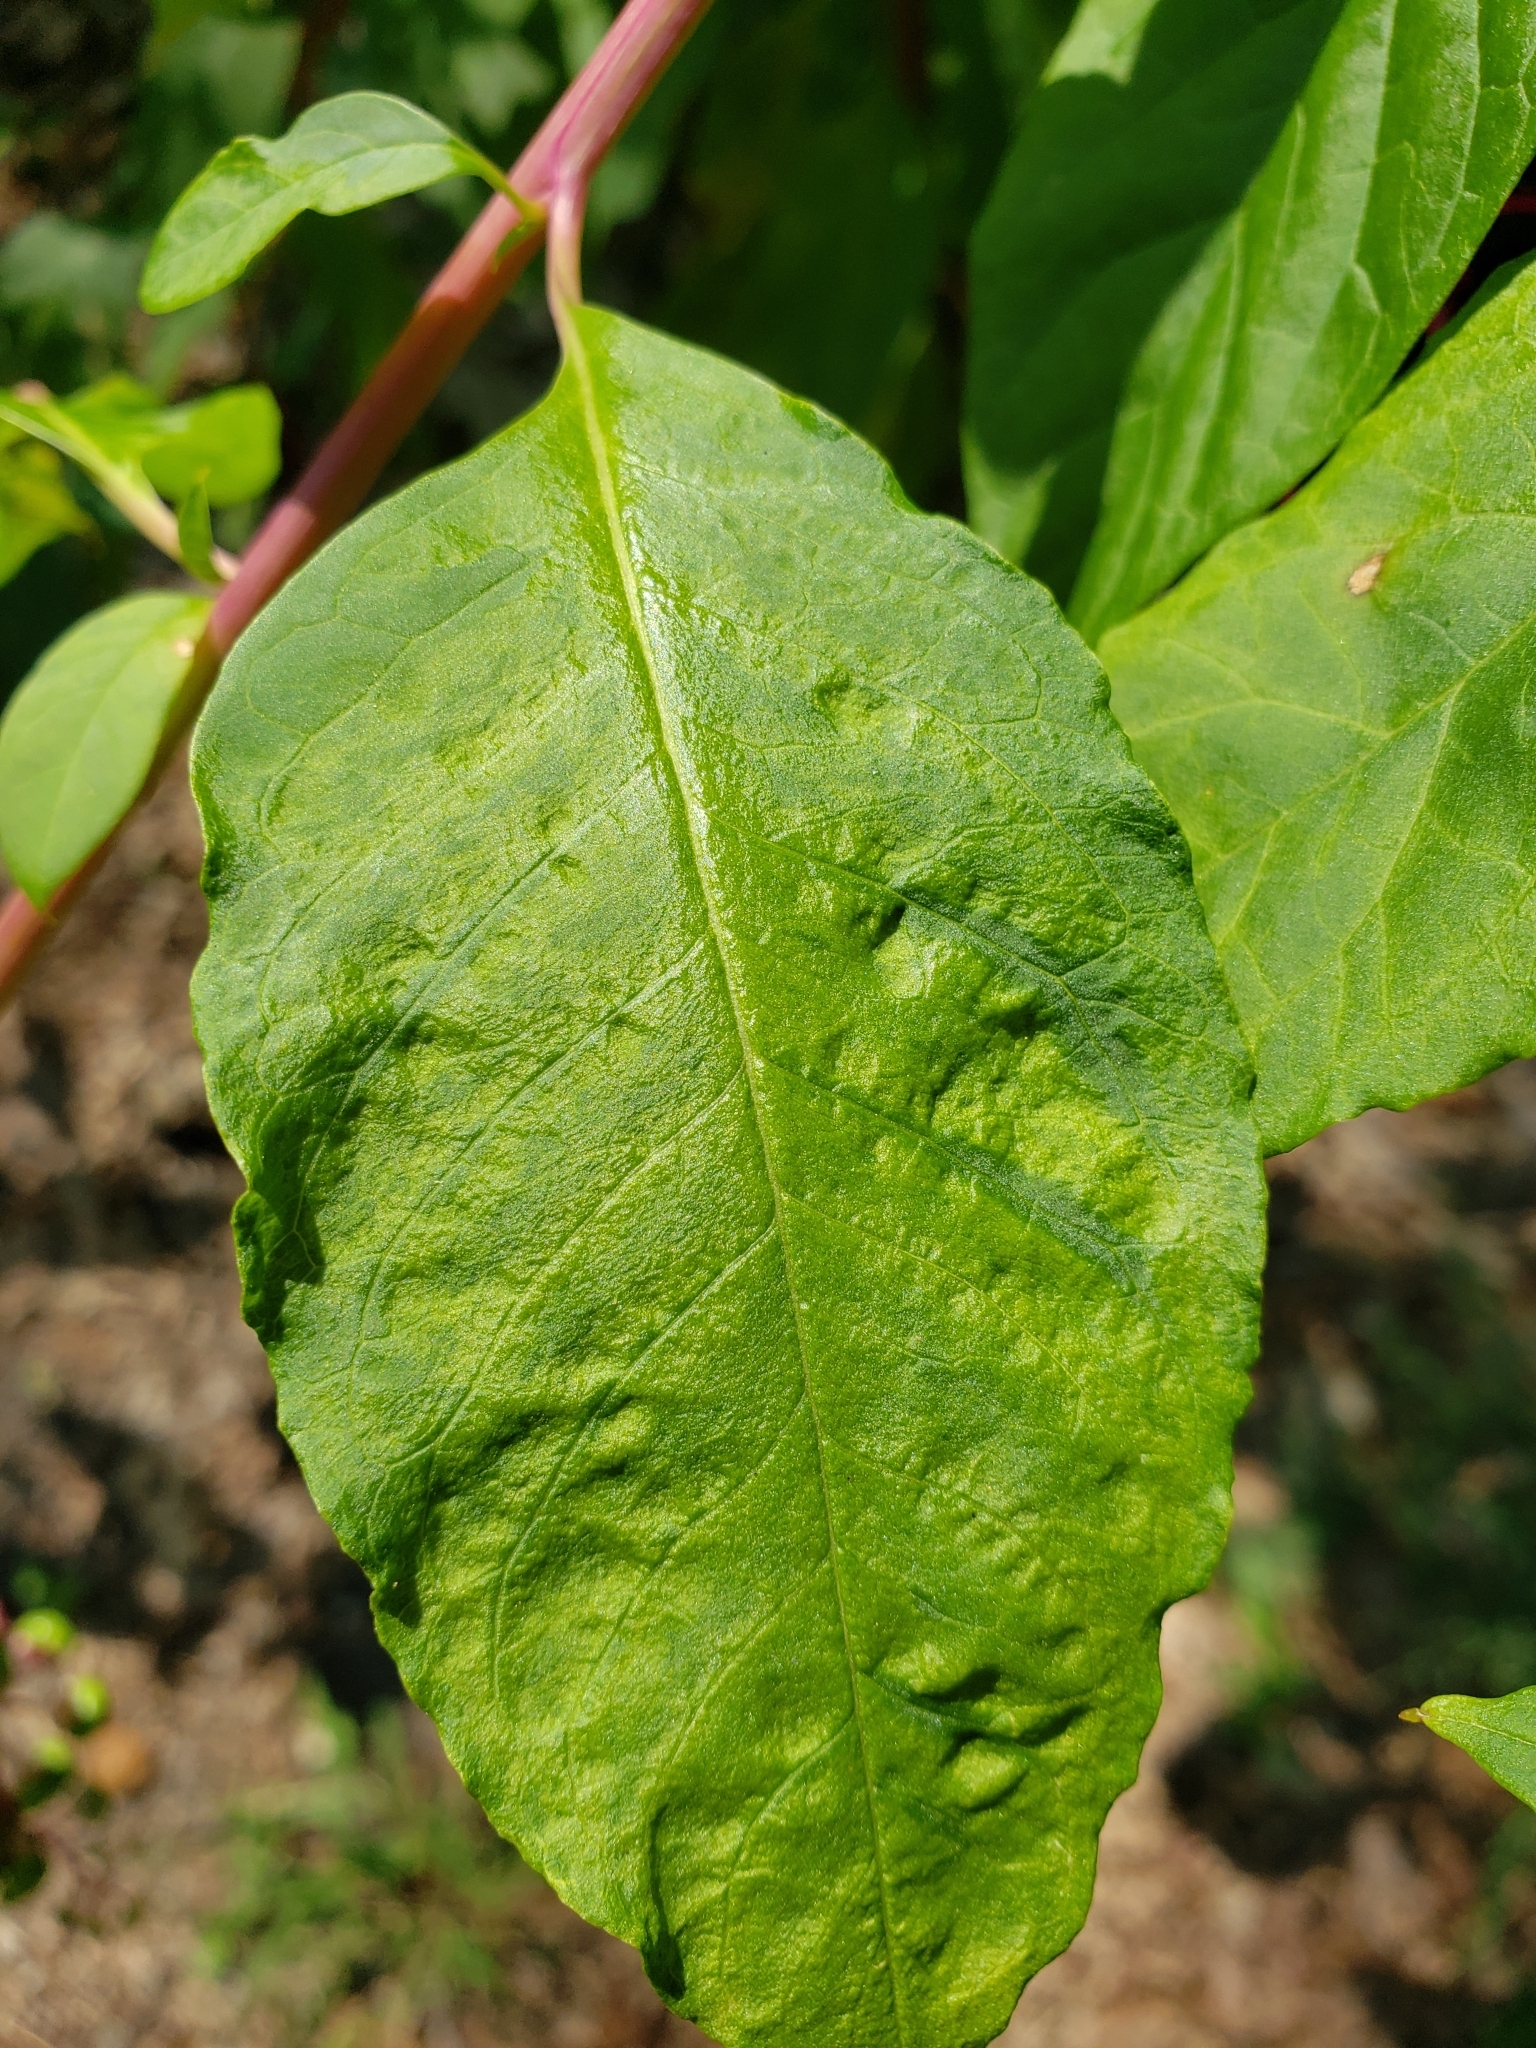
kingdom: Viruses
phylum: Pisuviricota
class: Stelpaviricetes
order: Patatavirales
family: Potyviridae
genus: Potyvirus
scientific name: Potyvirus Pokeweed mosaic virus
